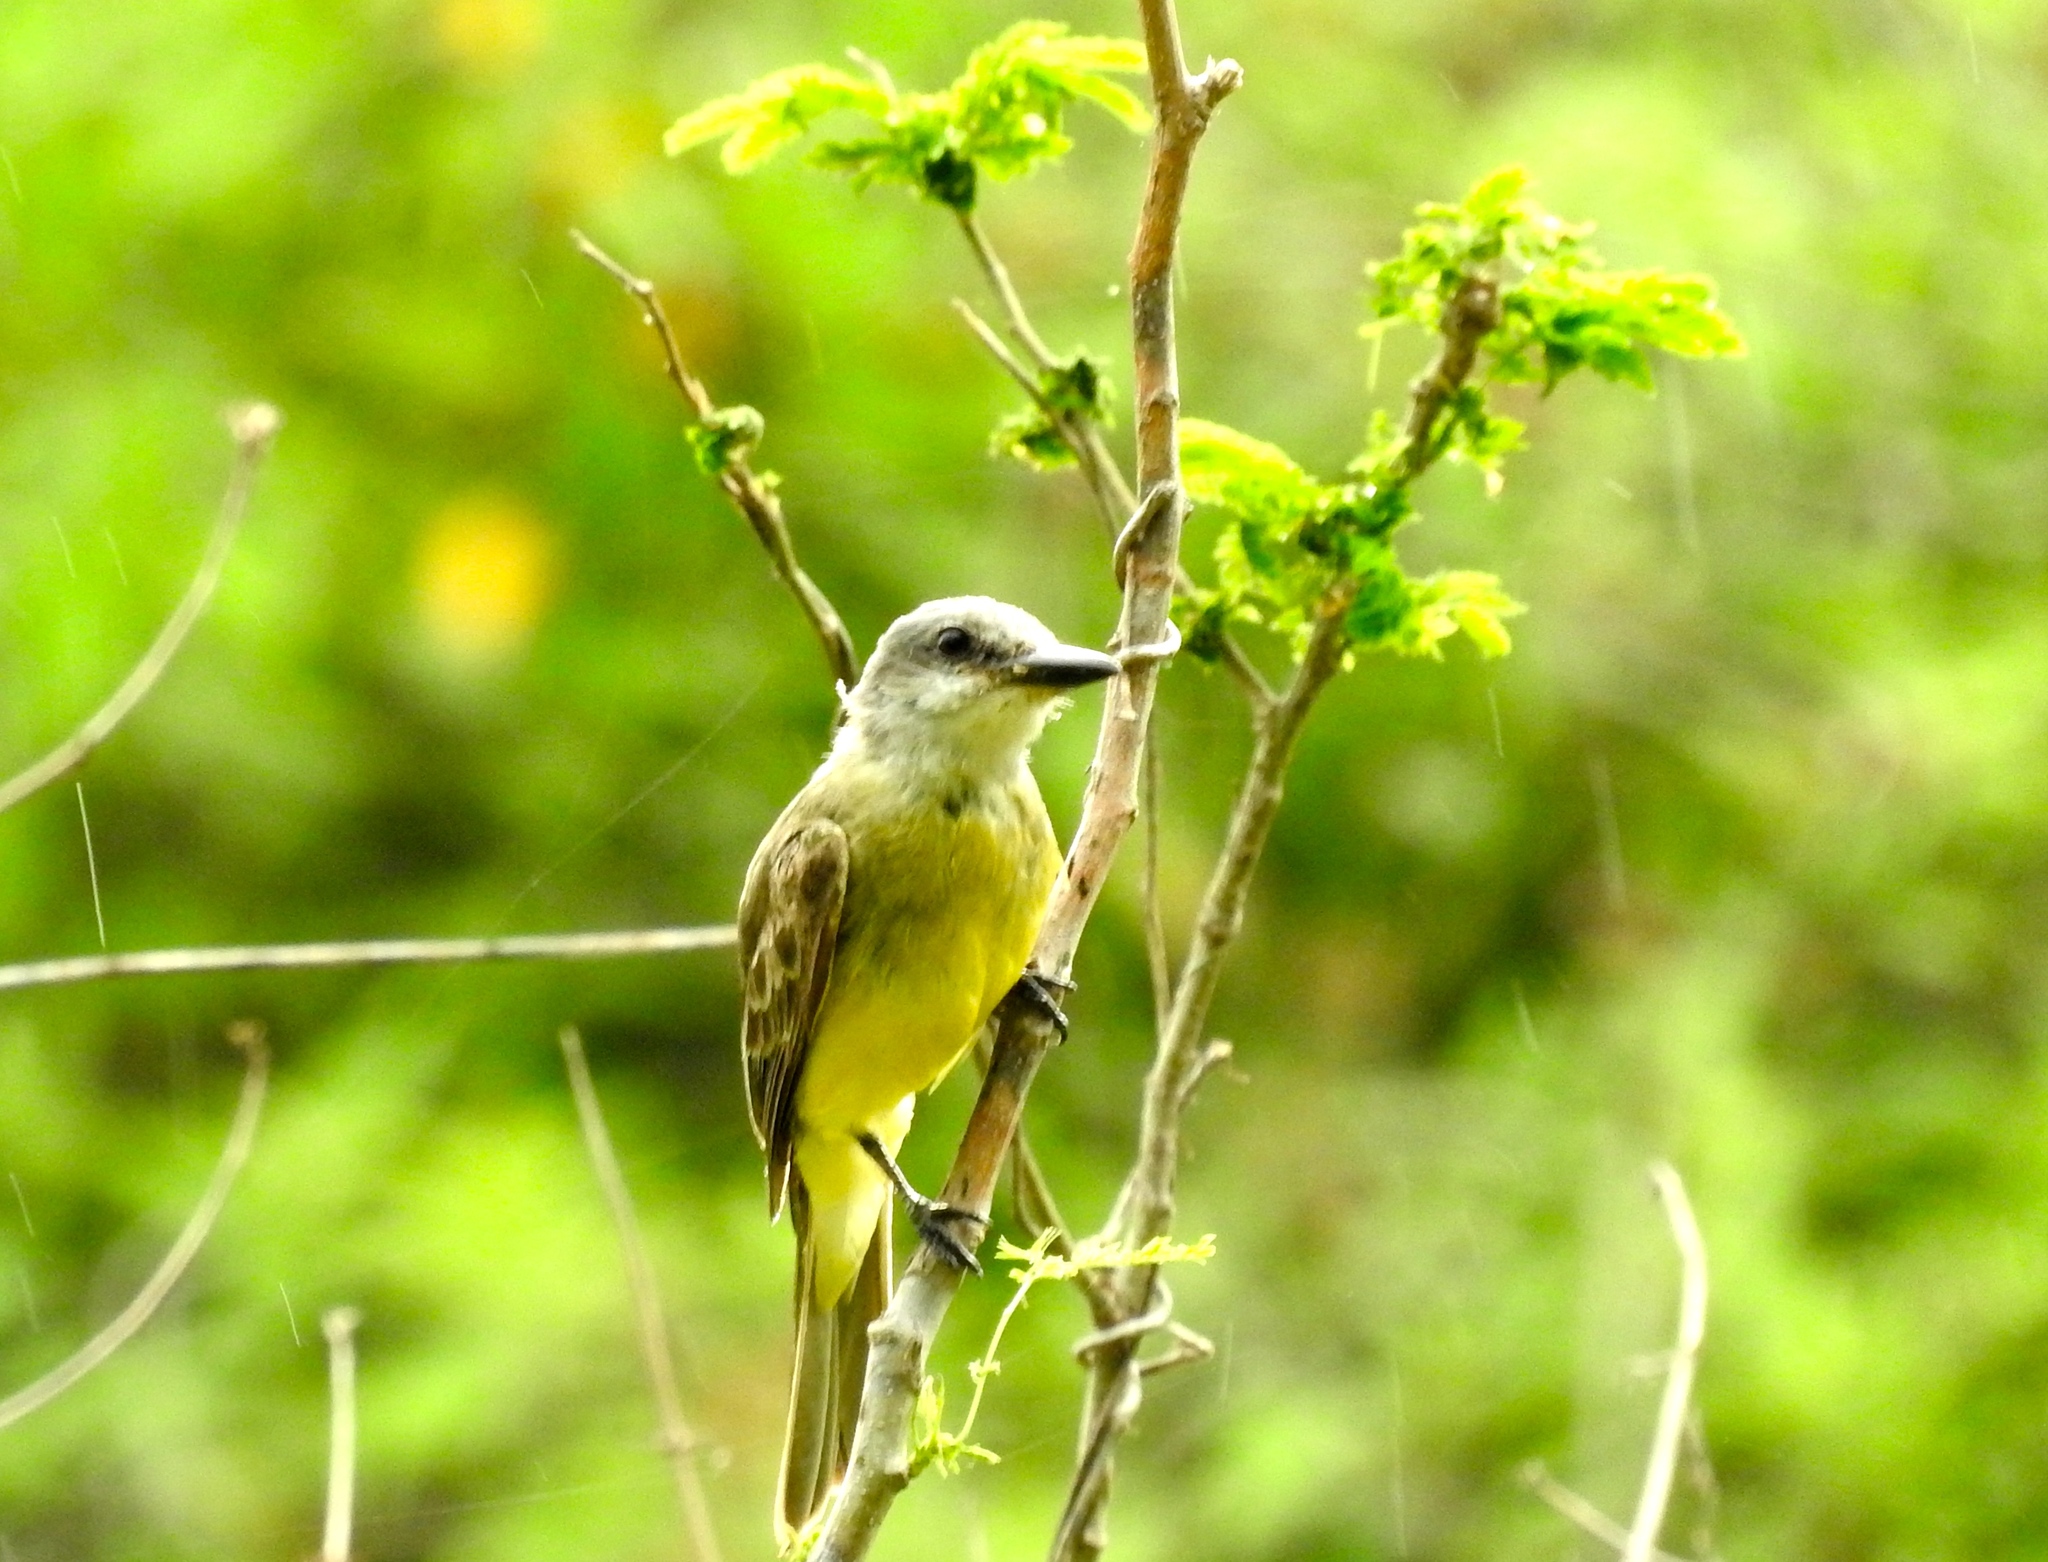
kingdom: Animalia
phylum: Chordata
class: Aves
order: Passeriformes
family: Tyrannidae
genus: Tyrannus
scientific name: Tyrannus melancholicus
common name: Tropical kingbird
